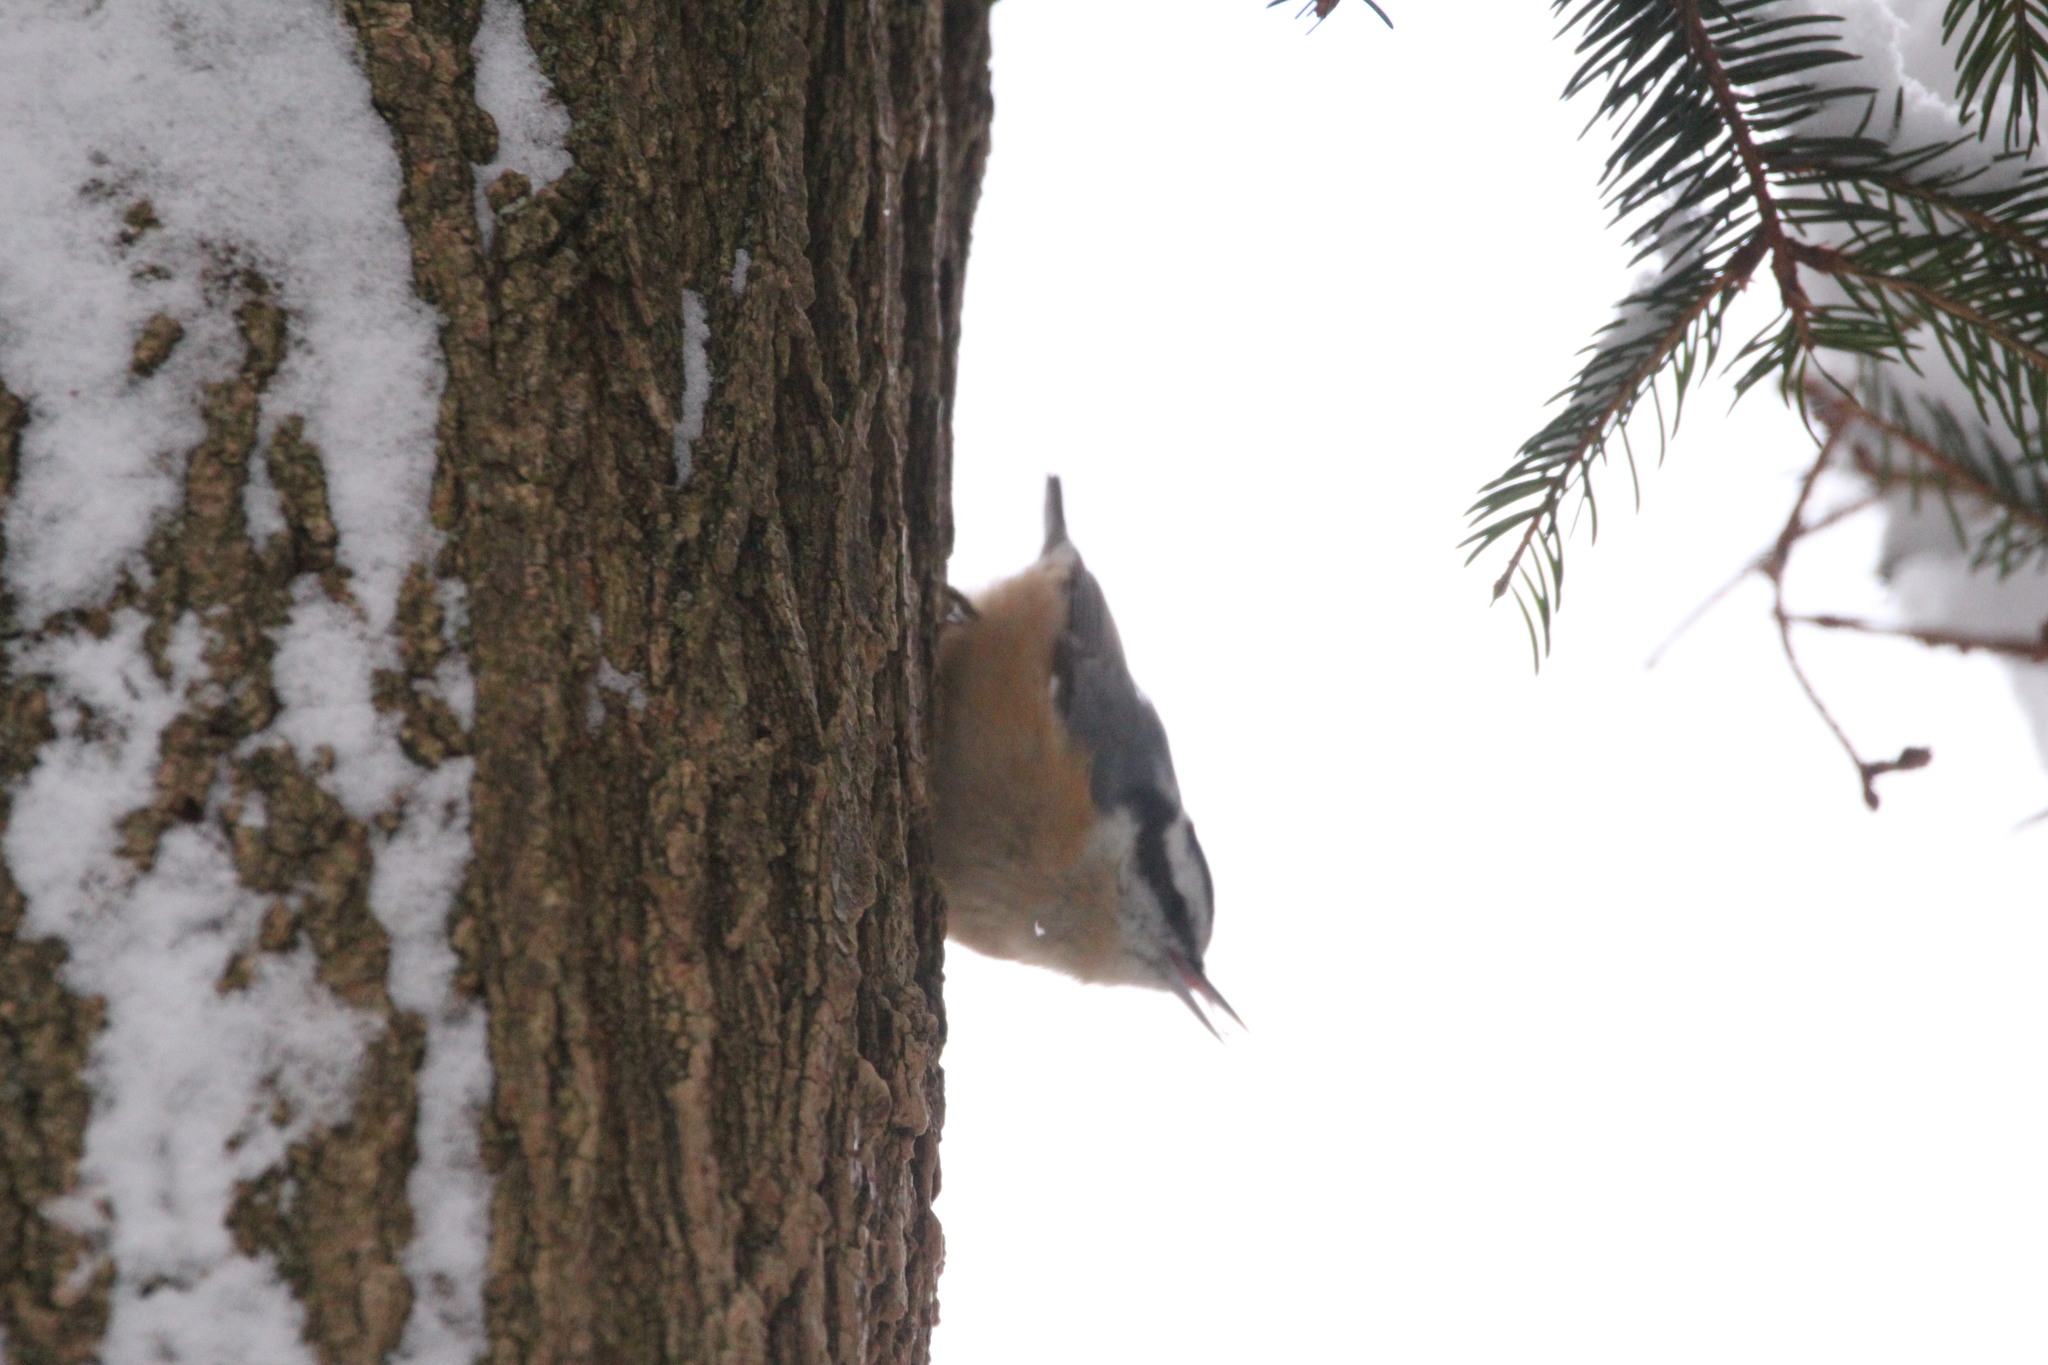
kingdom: Animalia
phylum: Chordata
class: Aves
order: Passeriformes
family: Sittidae
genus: Sitta
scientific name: Sitta canadensis
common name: Red-breasted nuthatch
